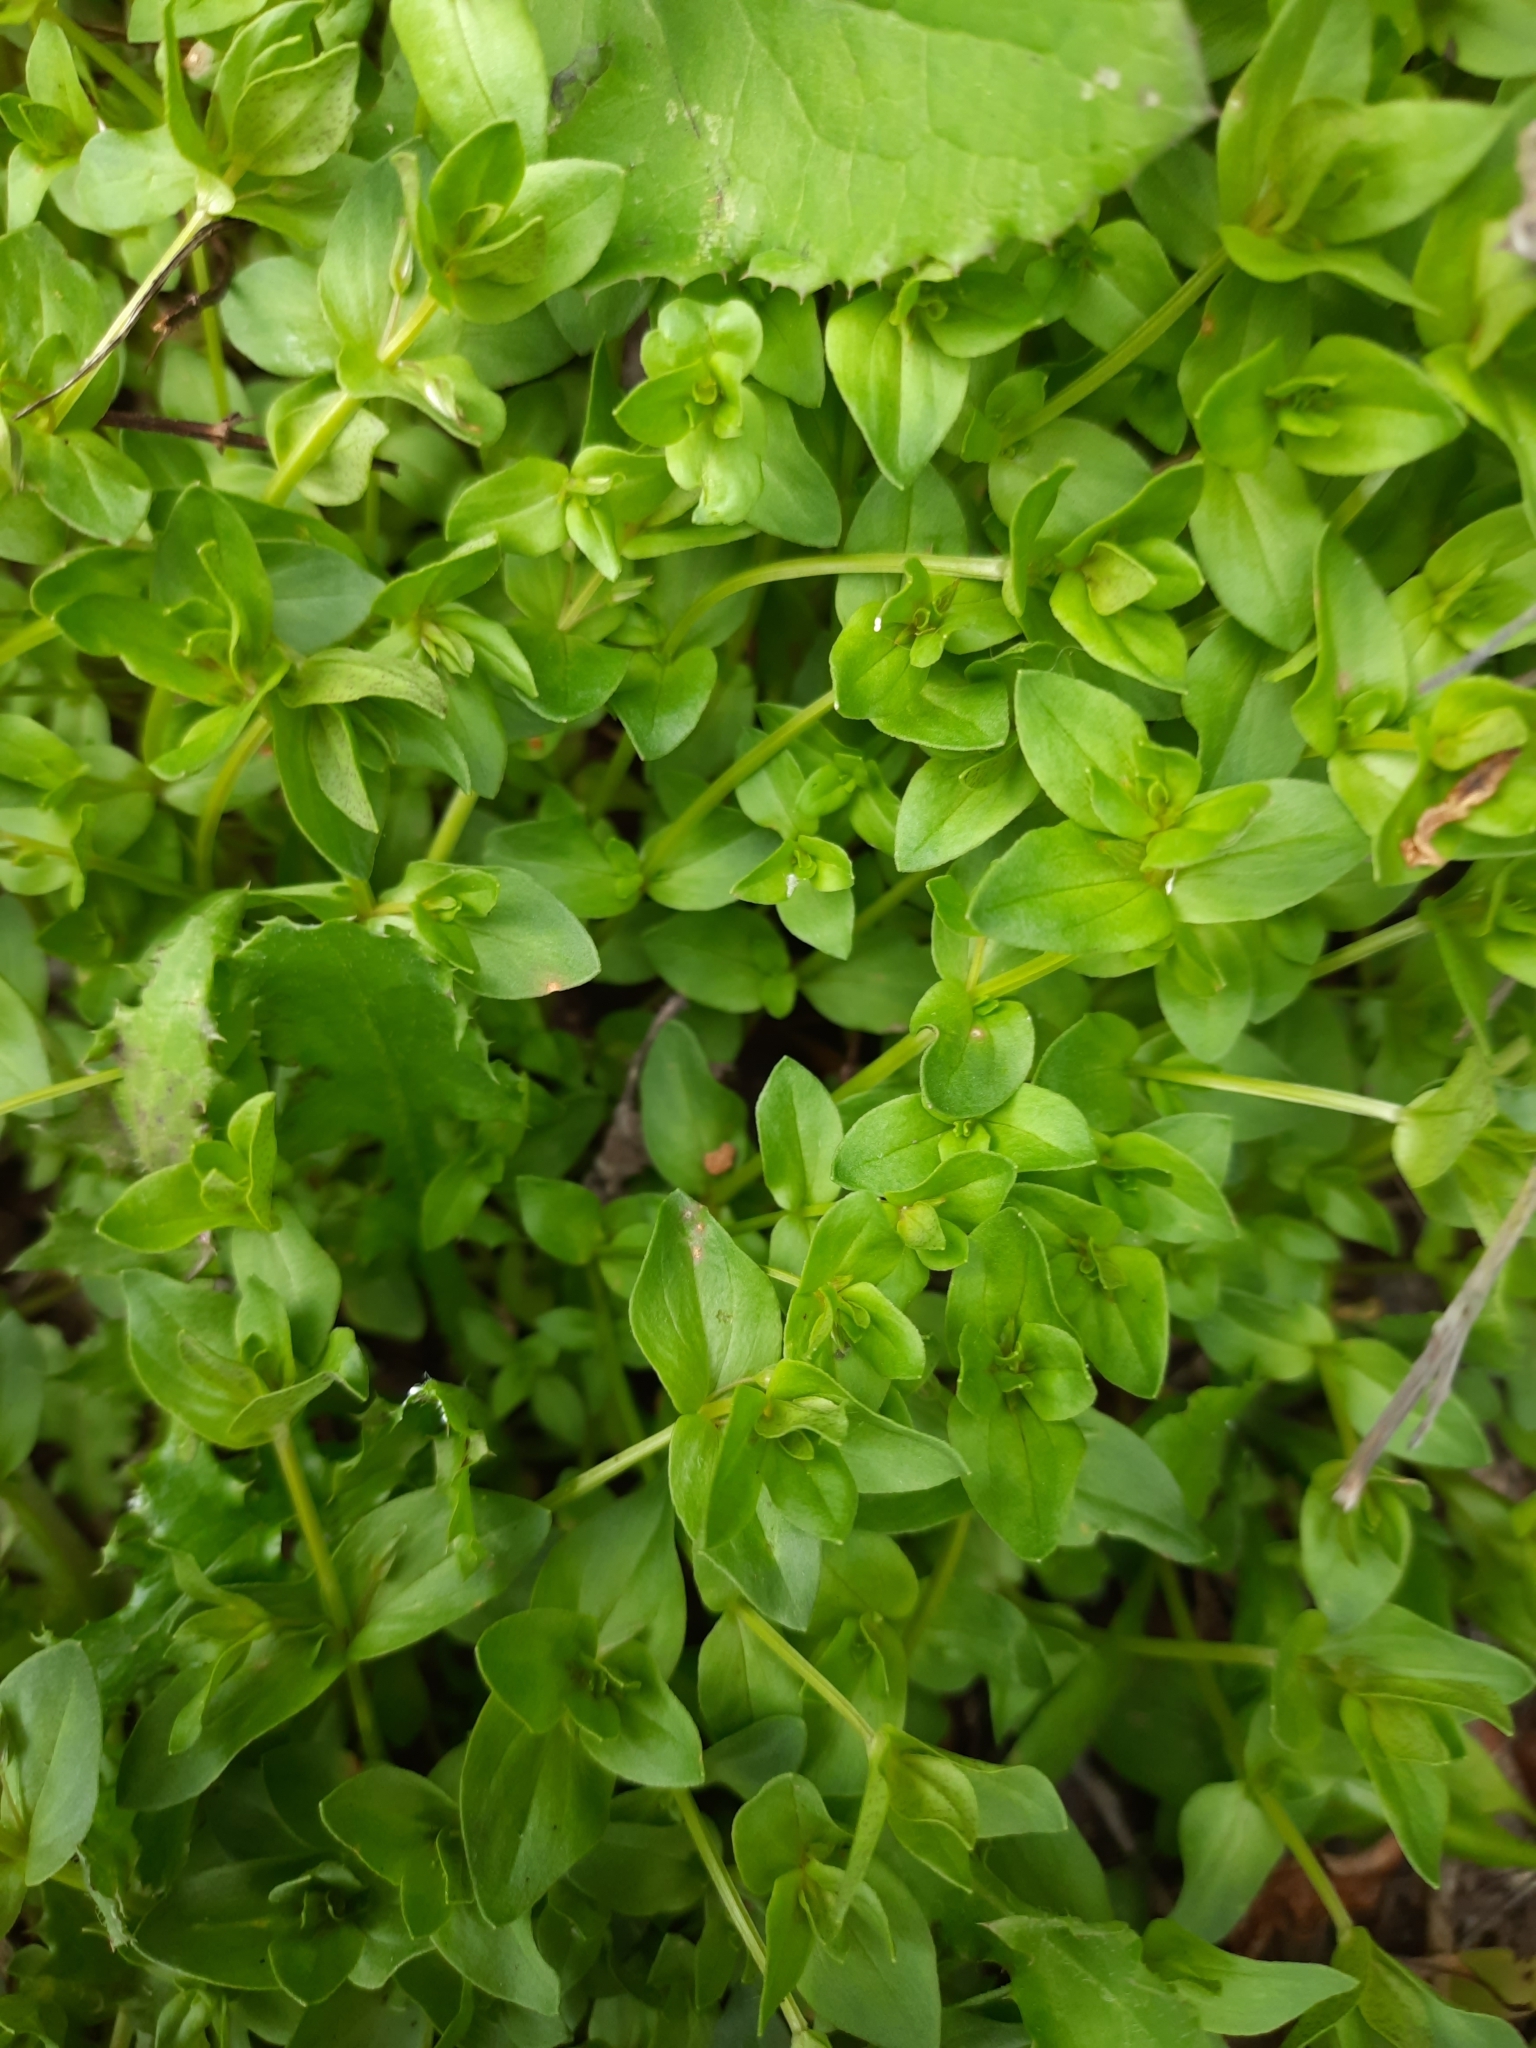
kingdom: Plantae
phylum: Tracheophyta
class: Magnoliopsida
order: Caryophyllales
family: Caryophyllaceae
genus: Stellaria
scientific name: Stellaria media
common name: Common chickweed
